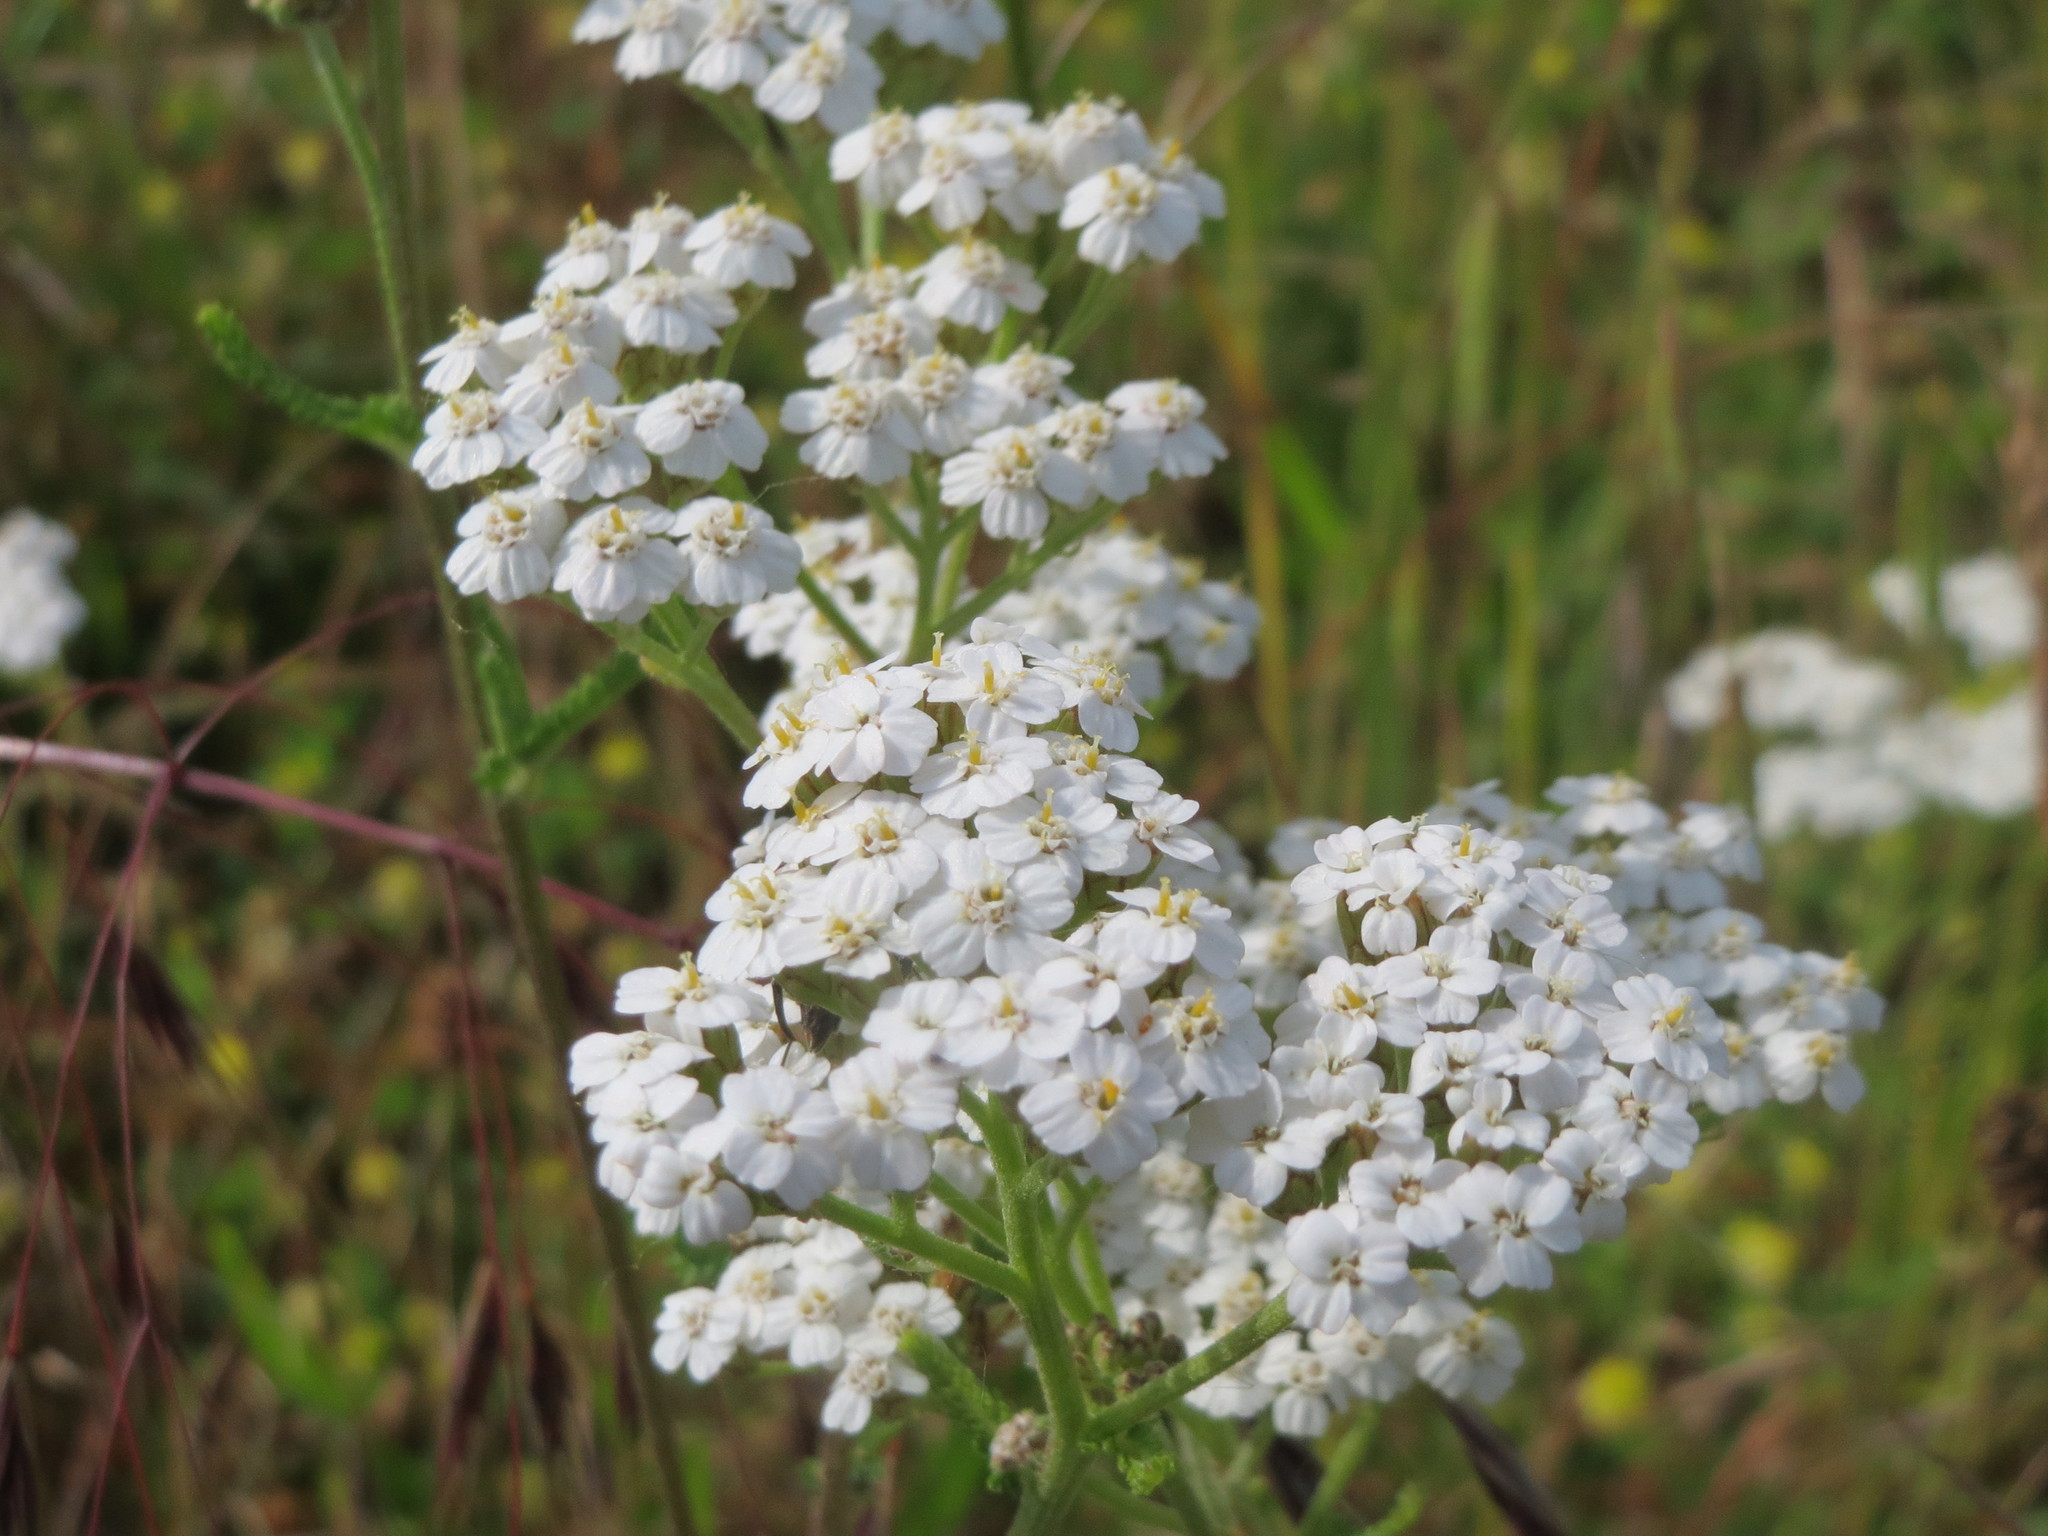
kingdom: Plantae
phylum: Tracheophyta
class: Magnoliopsida
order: Asterales
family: Asteraceae
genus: Achillea
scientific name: Achillea millefolium
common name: Yarrow
